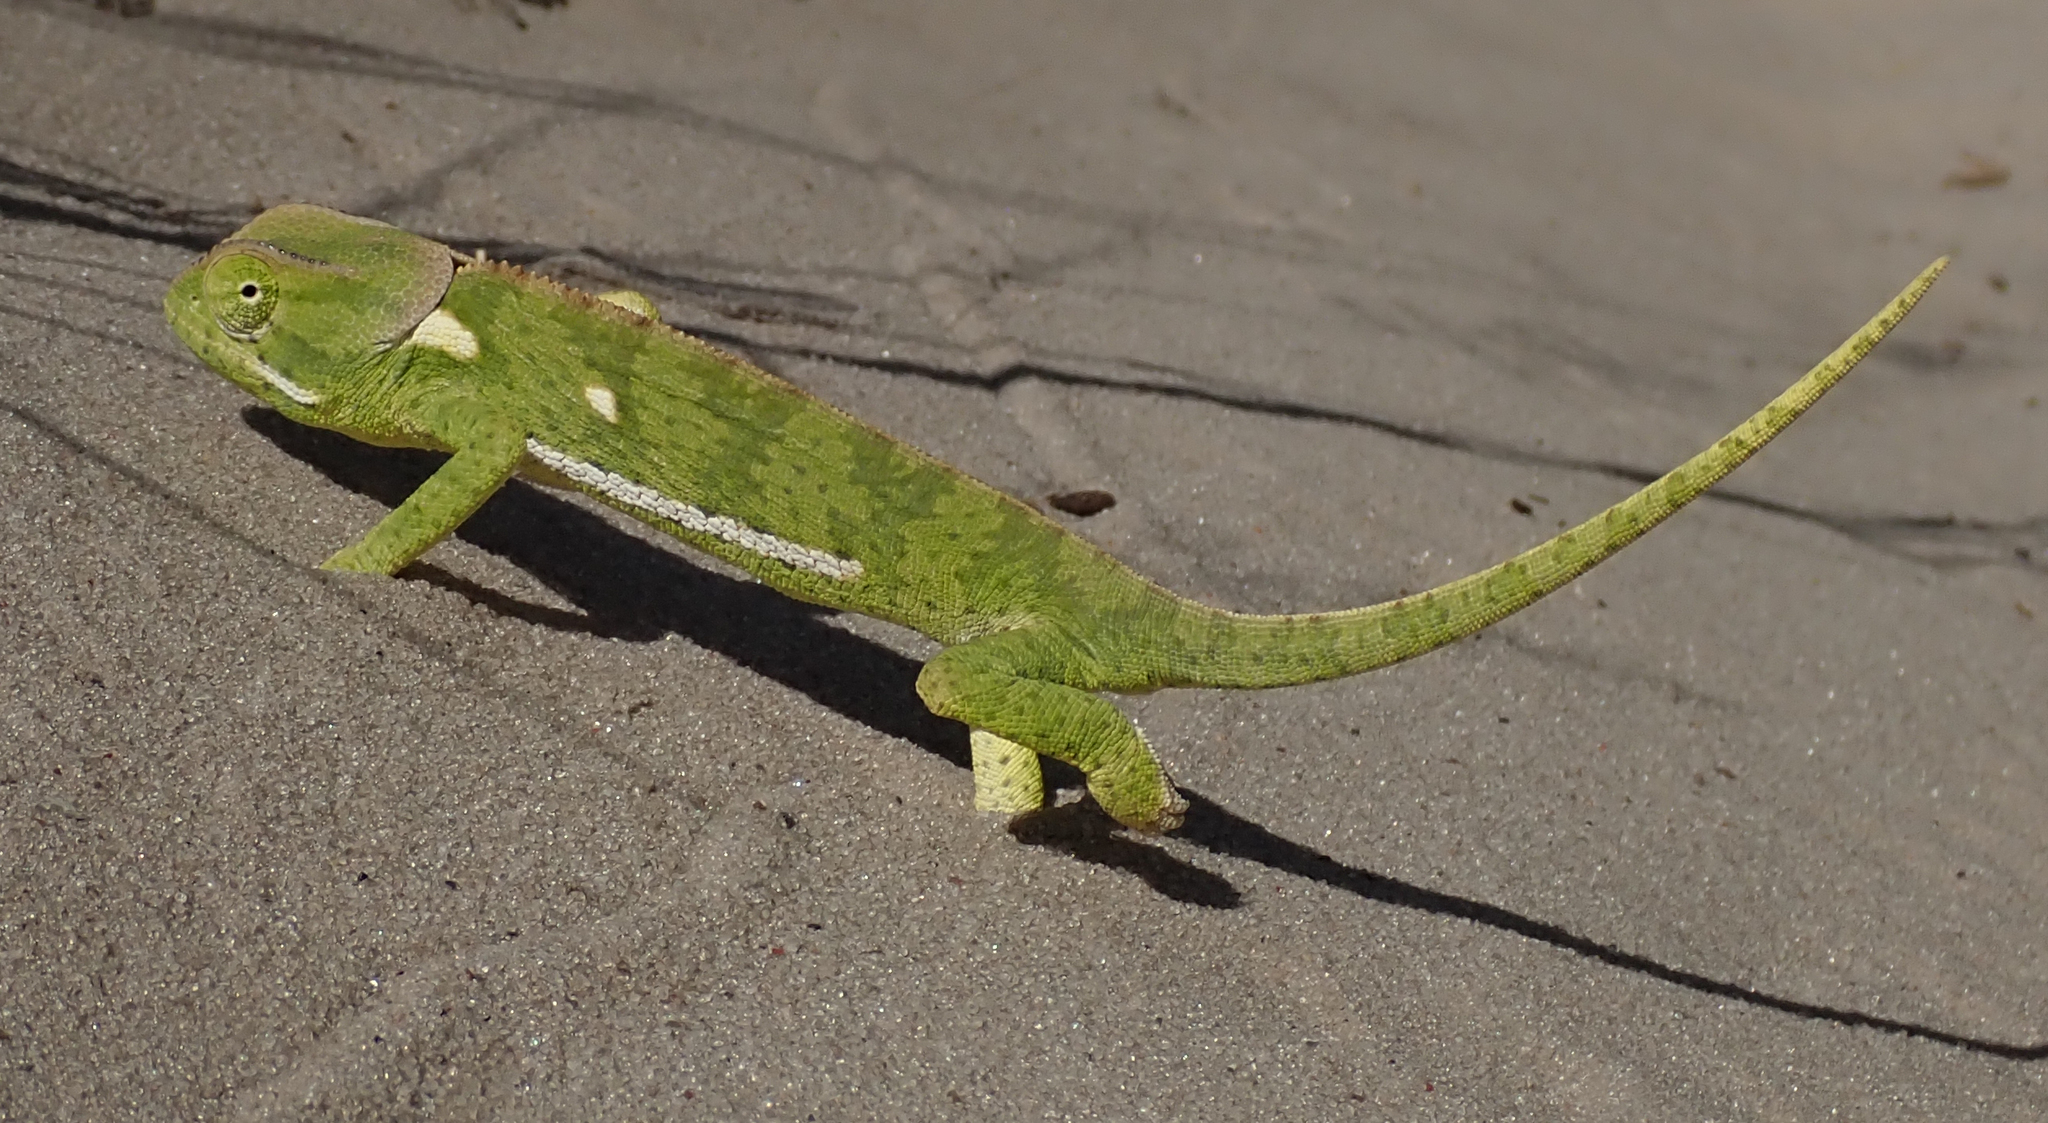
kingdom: Animalia
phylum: Chordata
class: Squamata
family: Chamaeleonidae
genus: Chamaeleo
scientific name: Chamaeleo dilepis
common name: Flapneck chameleon
